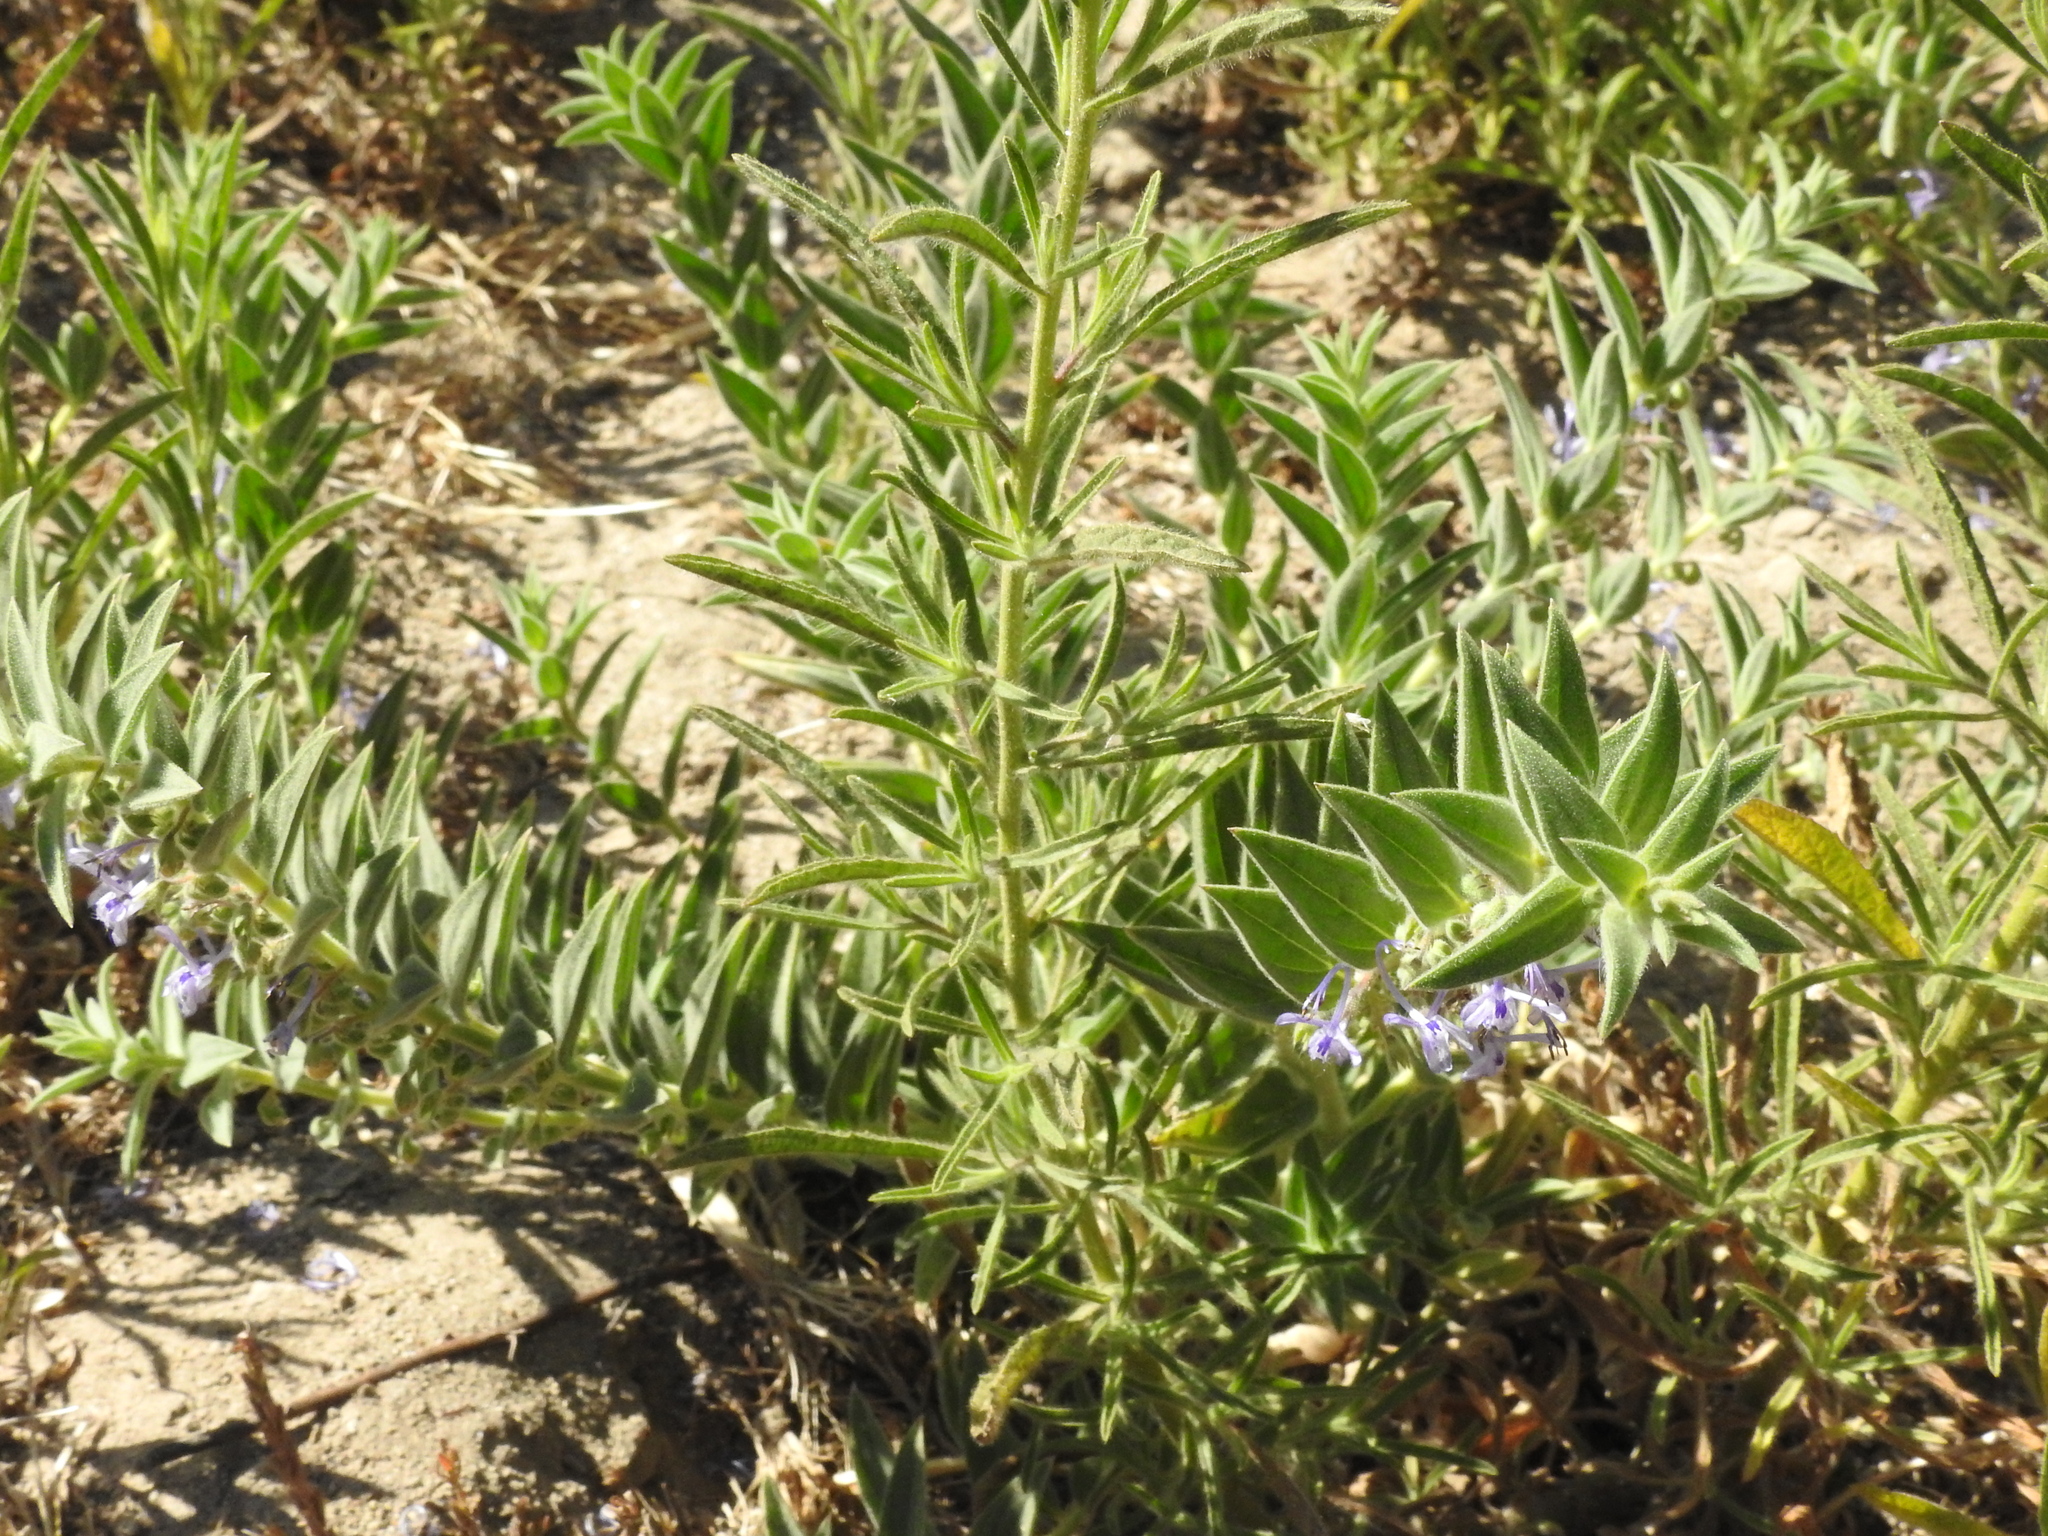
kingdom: Plantae
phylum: Tracheophyta
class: Magnoliopsida
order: Lamiales
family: Lamiaceae
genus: Trichostema
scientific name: Trichostema lanceolatum
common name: Vinegar-weed
